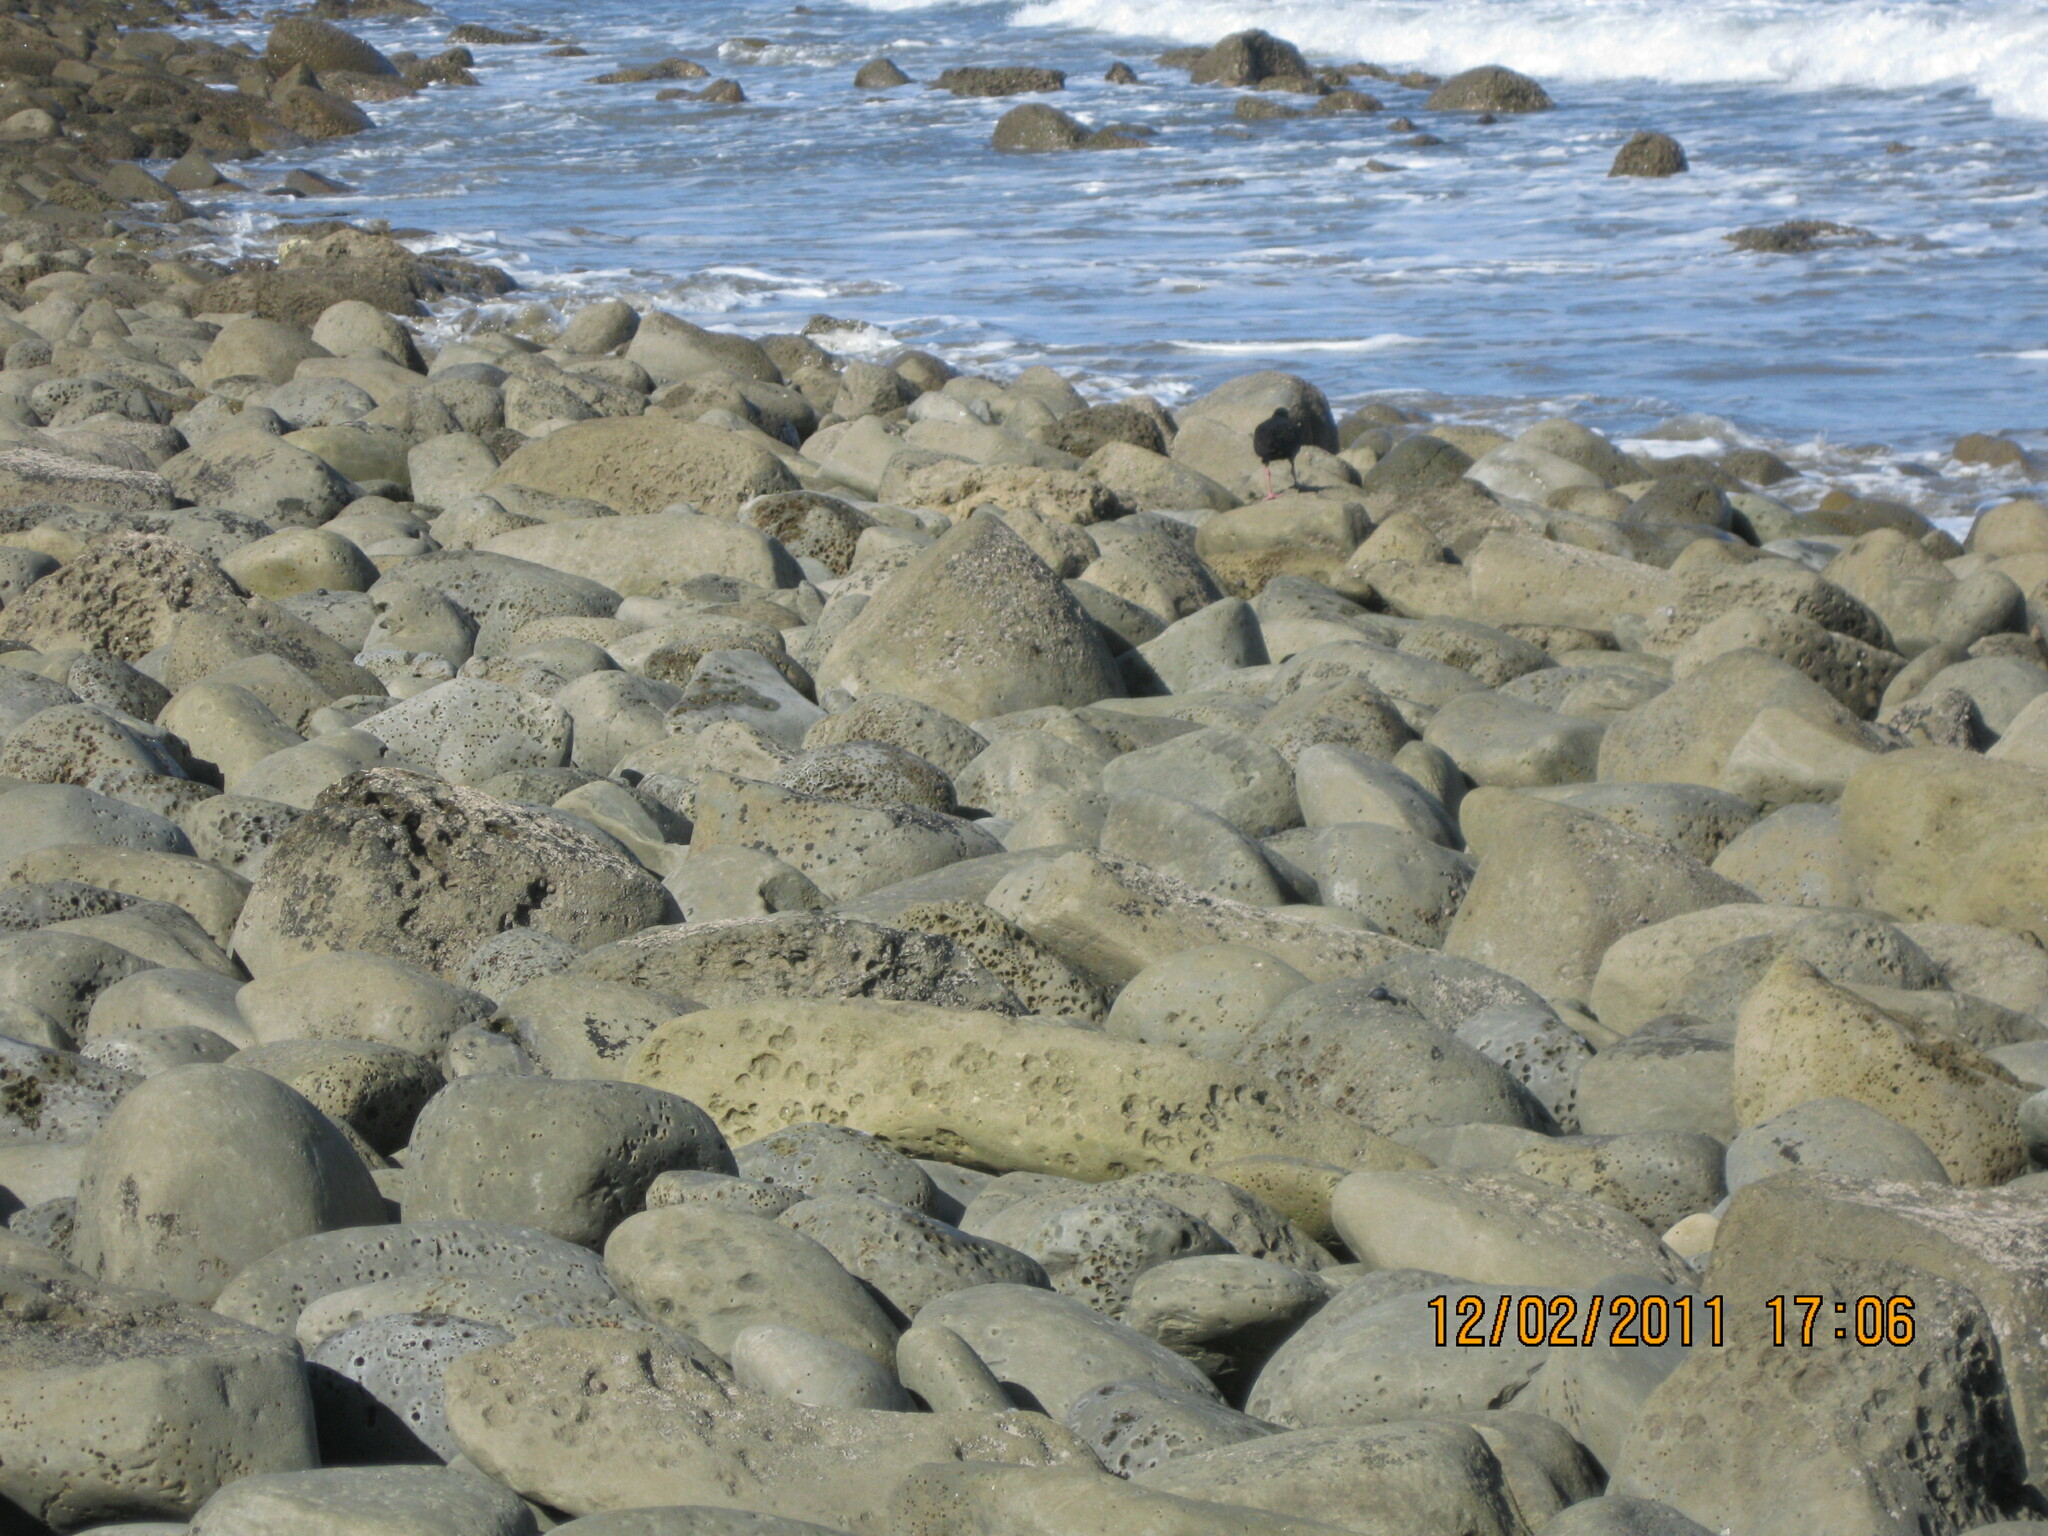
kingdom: Animalia
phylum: Chordata
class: Aves
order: Charadriiformes
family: Haematopodidae
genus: Haematopus
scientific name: Haematopus unicolor
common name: Variable oystercatcher
